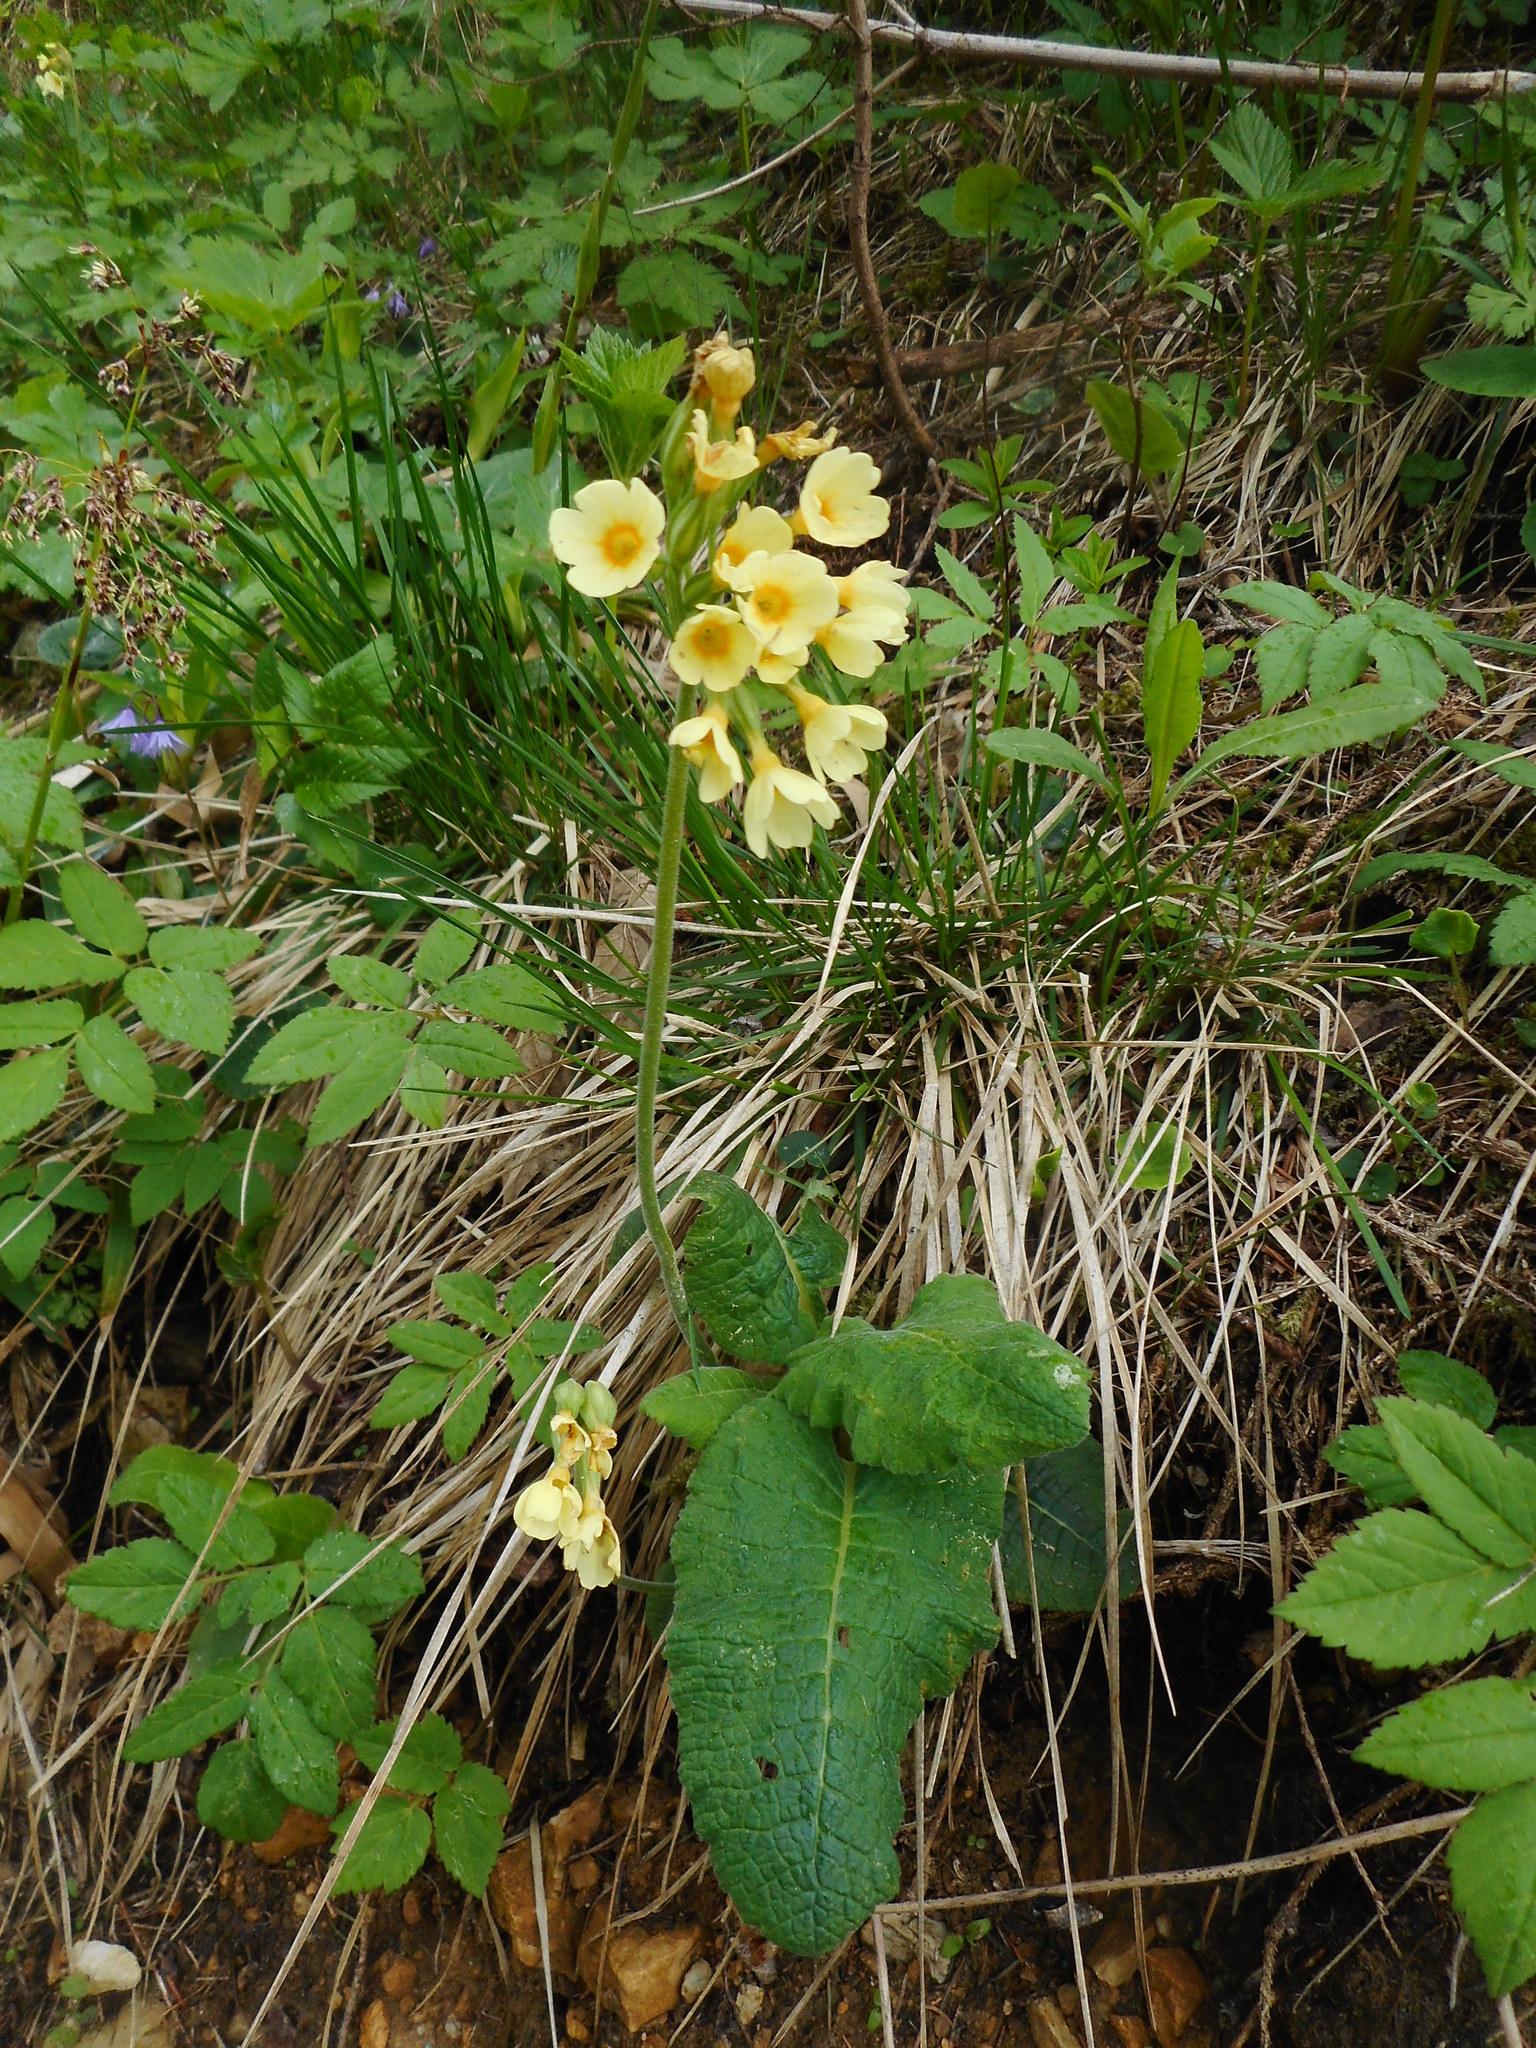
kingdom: Plantae
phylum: Tracheophyta
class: Magnoliopsida
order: Ericales
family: Primulaceae
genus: Primula
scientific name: Primula elatior
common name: Oxlip
